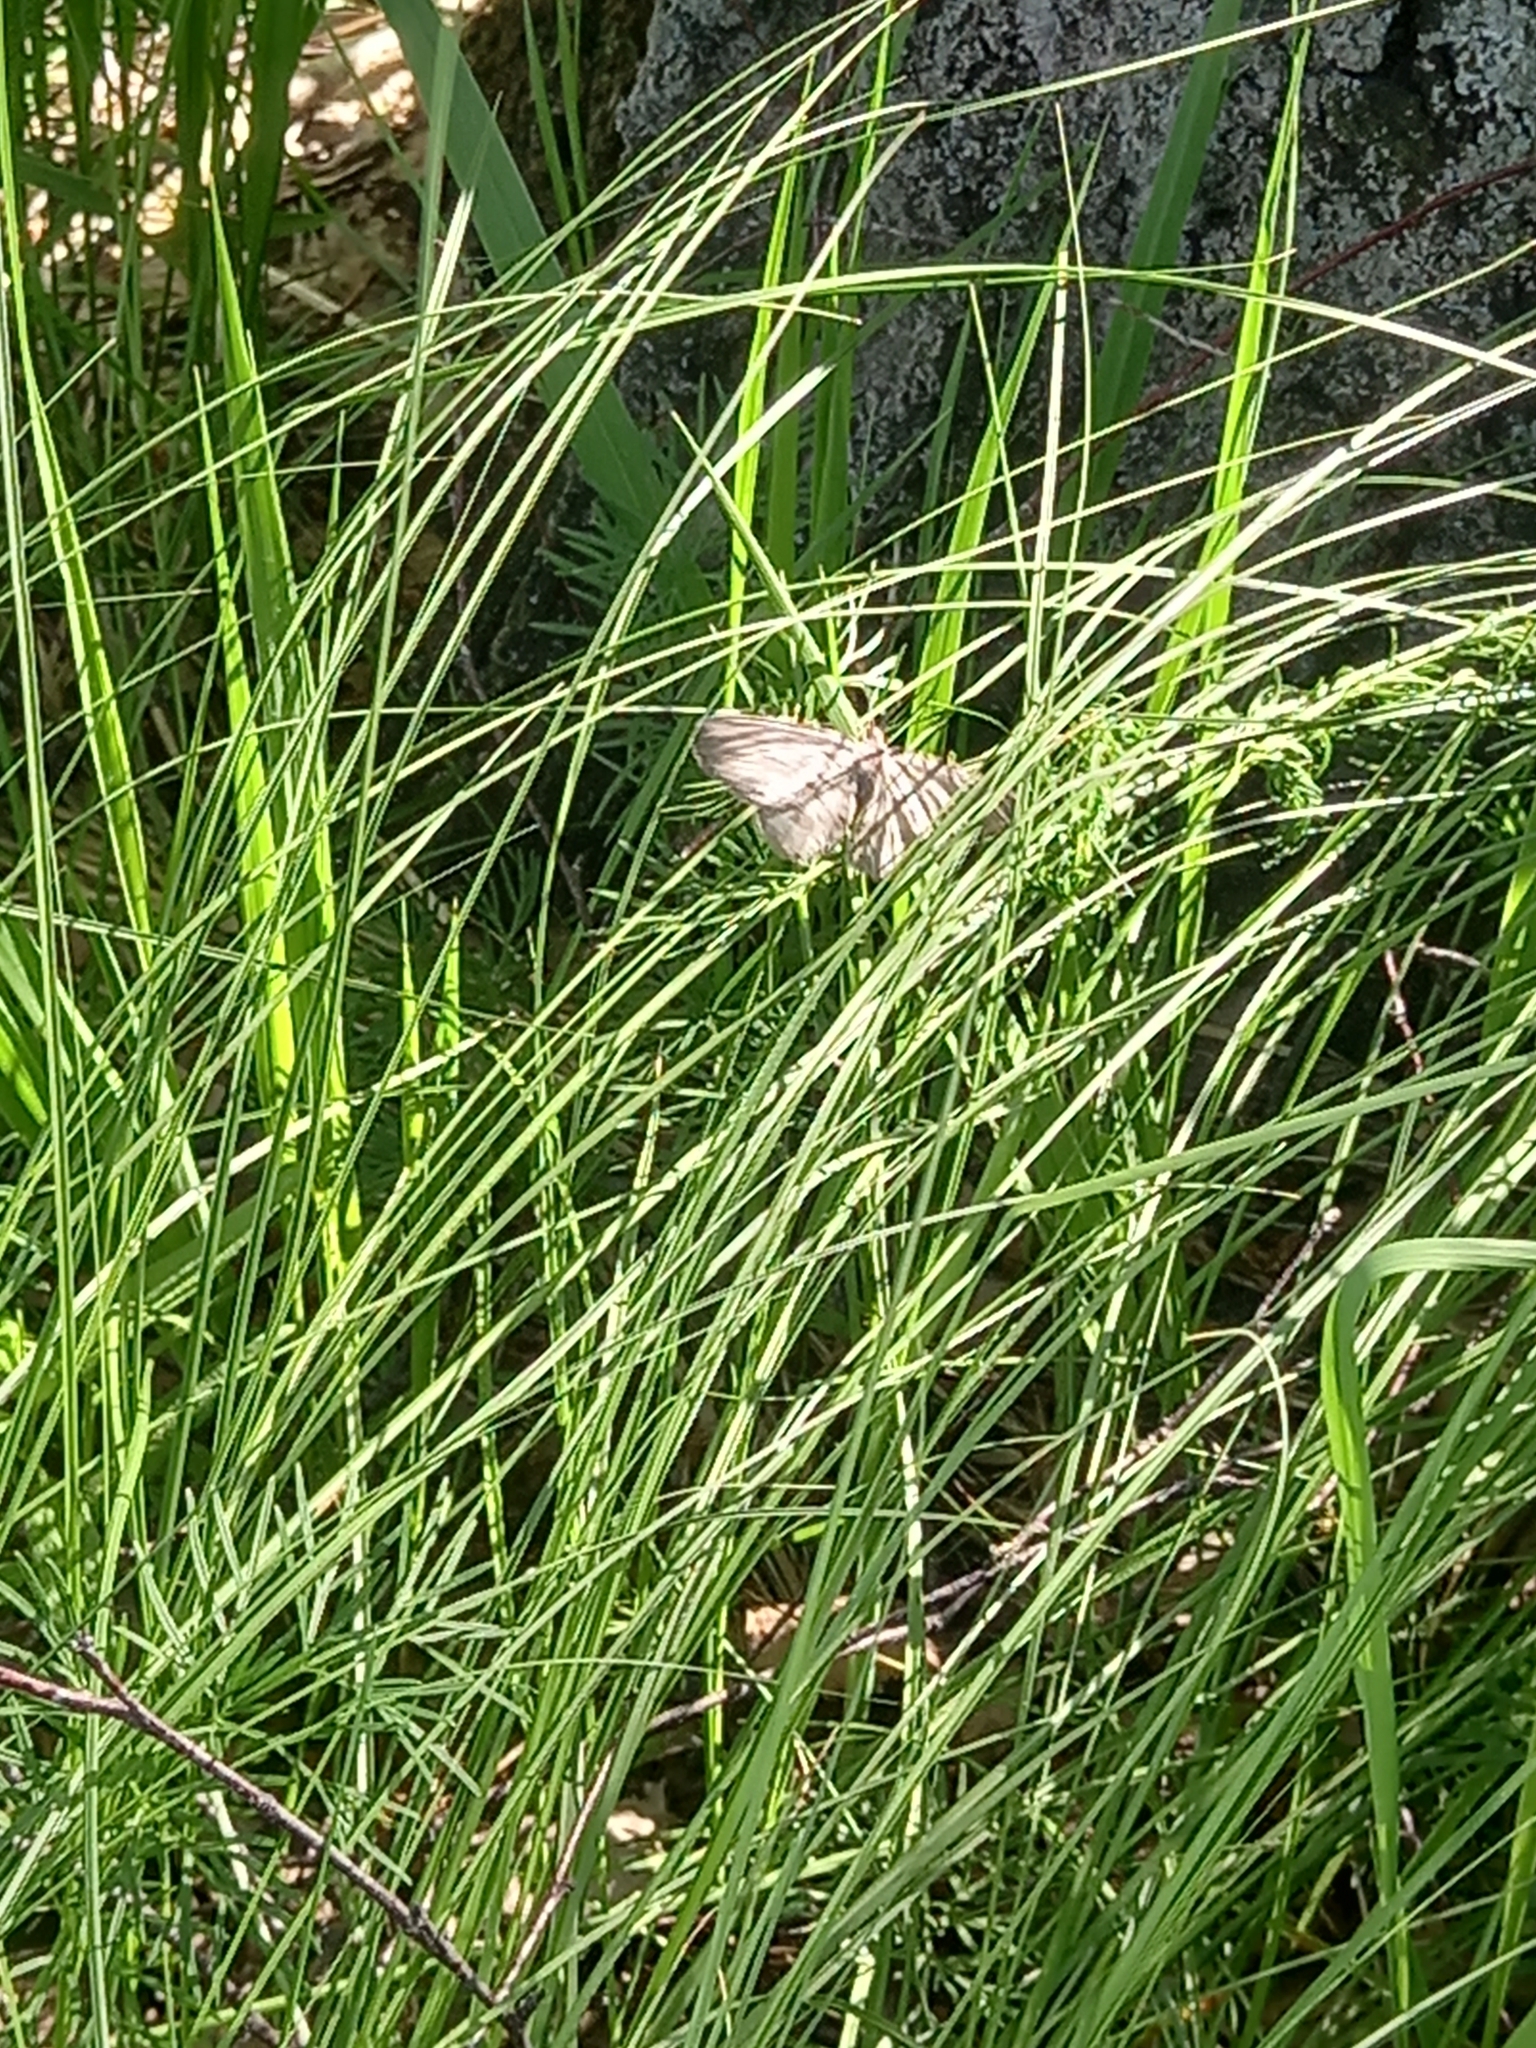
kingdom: Animalia
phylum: Arthropoda
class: Insecta
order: Lepidoptera
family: Geometridae
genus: Hypomecis
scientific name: Hypomecis punctinalis
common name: Pale oak beauty
